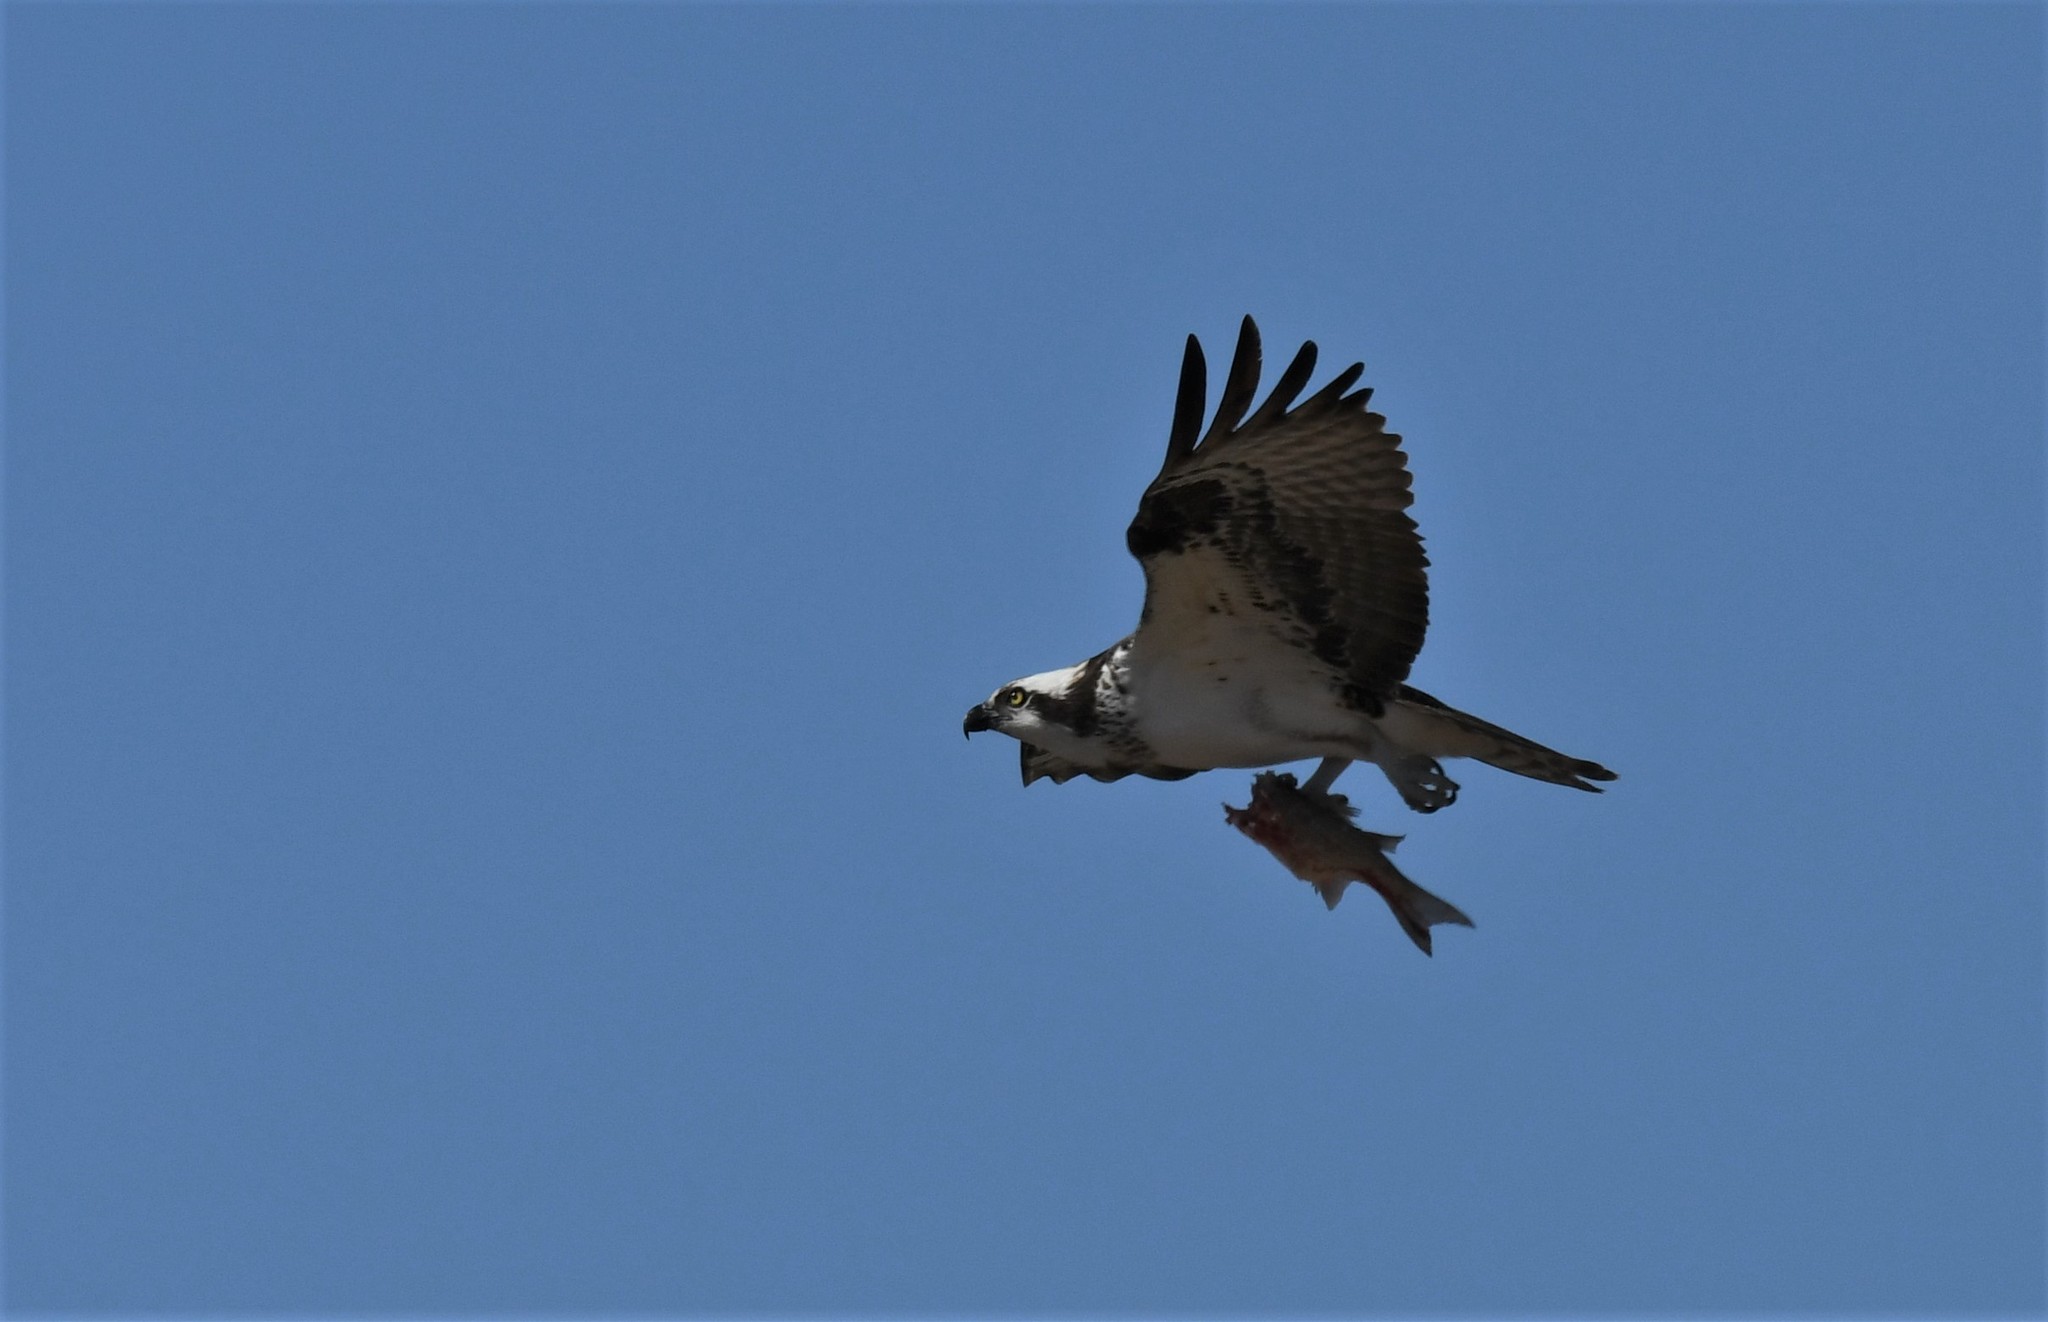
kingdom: Animalia
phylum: Chordata
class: Aves
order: Accipitriformes
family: Pandionidae
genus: Pandion
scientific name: Pandion haliaetus
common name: Osprey
